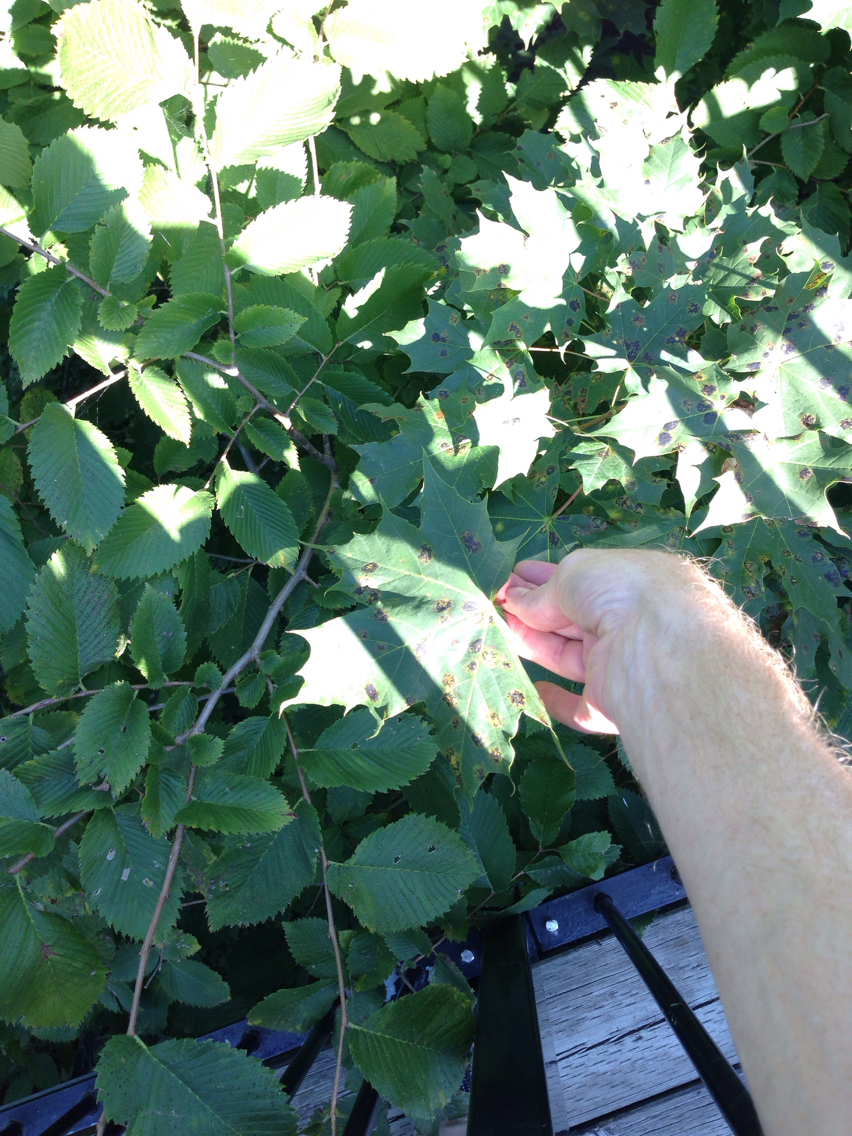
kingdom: Plantae
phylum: Tracheophyta
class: Magnoliopsida
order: Sapindales
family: Sapindaceae
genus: Acer
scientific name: Acer platanoides
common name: Norway maple
